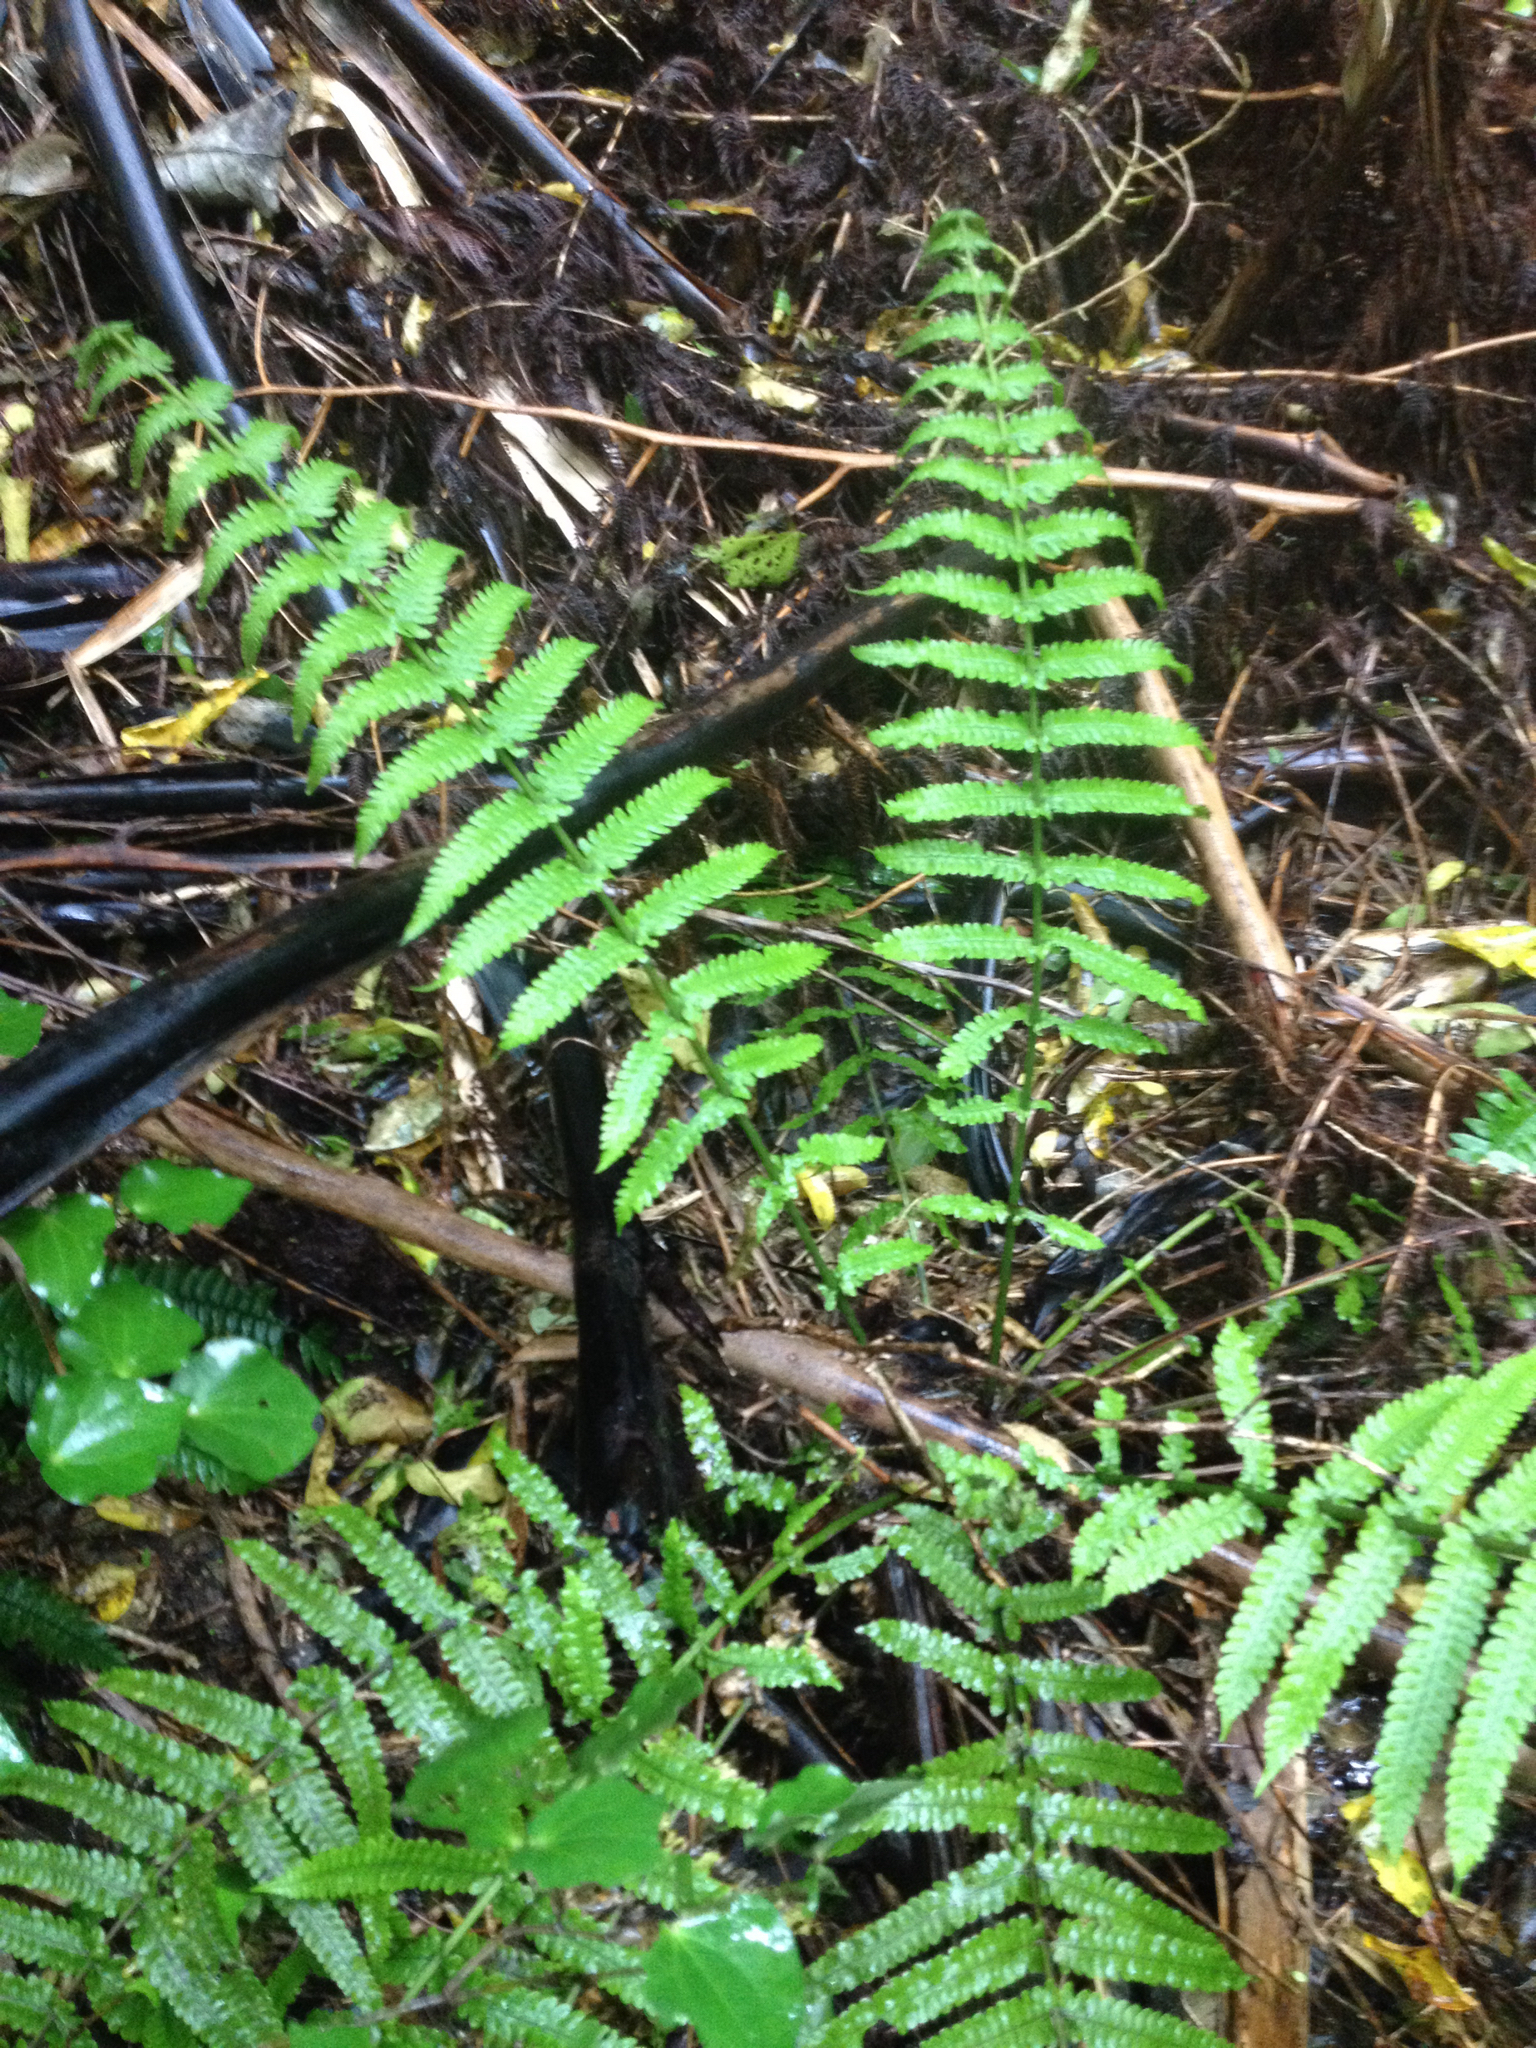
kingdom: Plantae
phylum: Tracheophyta
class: Polypodiopsida
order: Polypodiales
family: Thelypteridaceae
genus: Pakau
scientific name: Pakau pennigera
